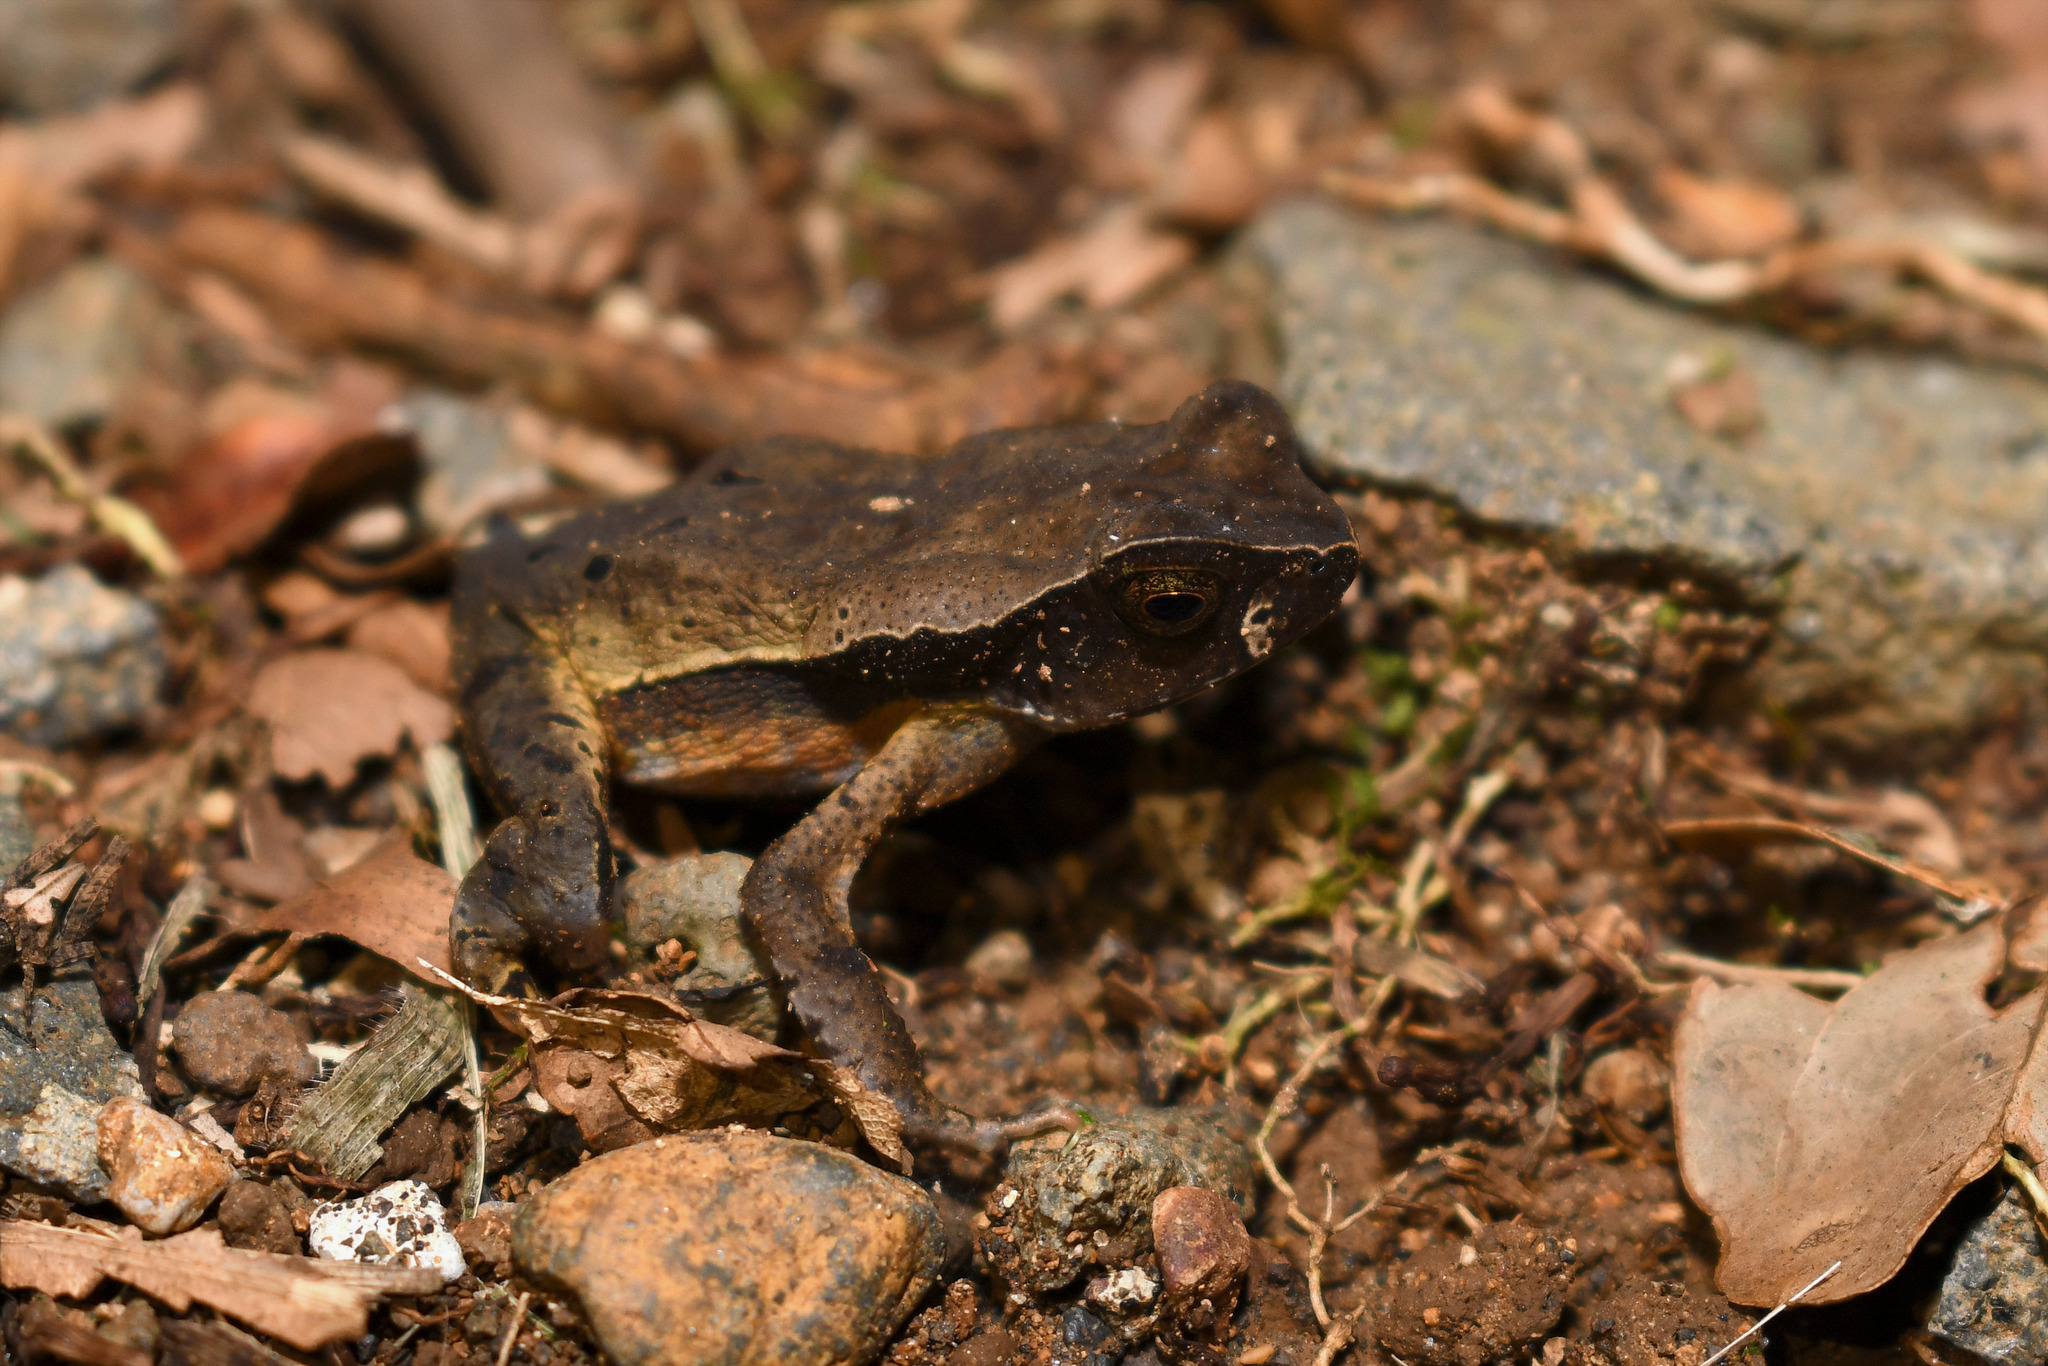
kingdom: Animalia
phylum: Chordata
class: Amphibia
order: Anura
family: Bufonidae
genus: Rhaebo
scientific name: Rhaebo haematiticus
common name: Truando toad
